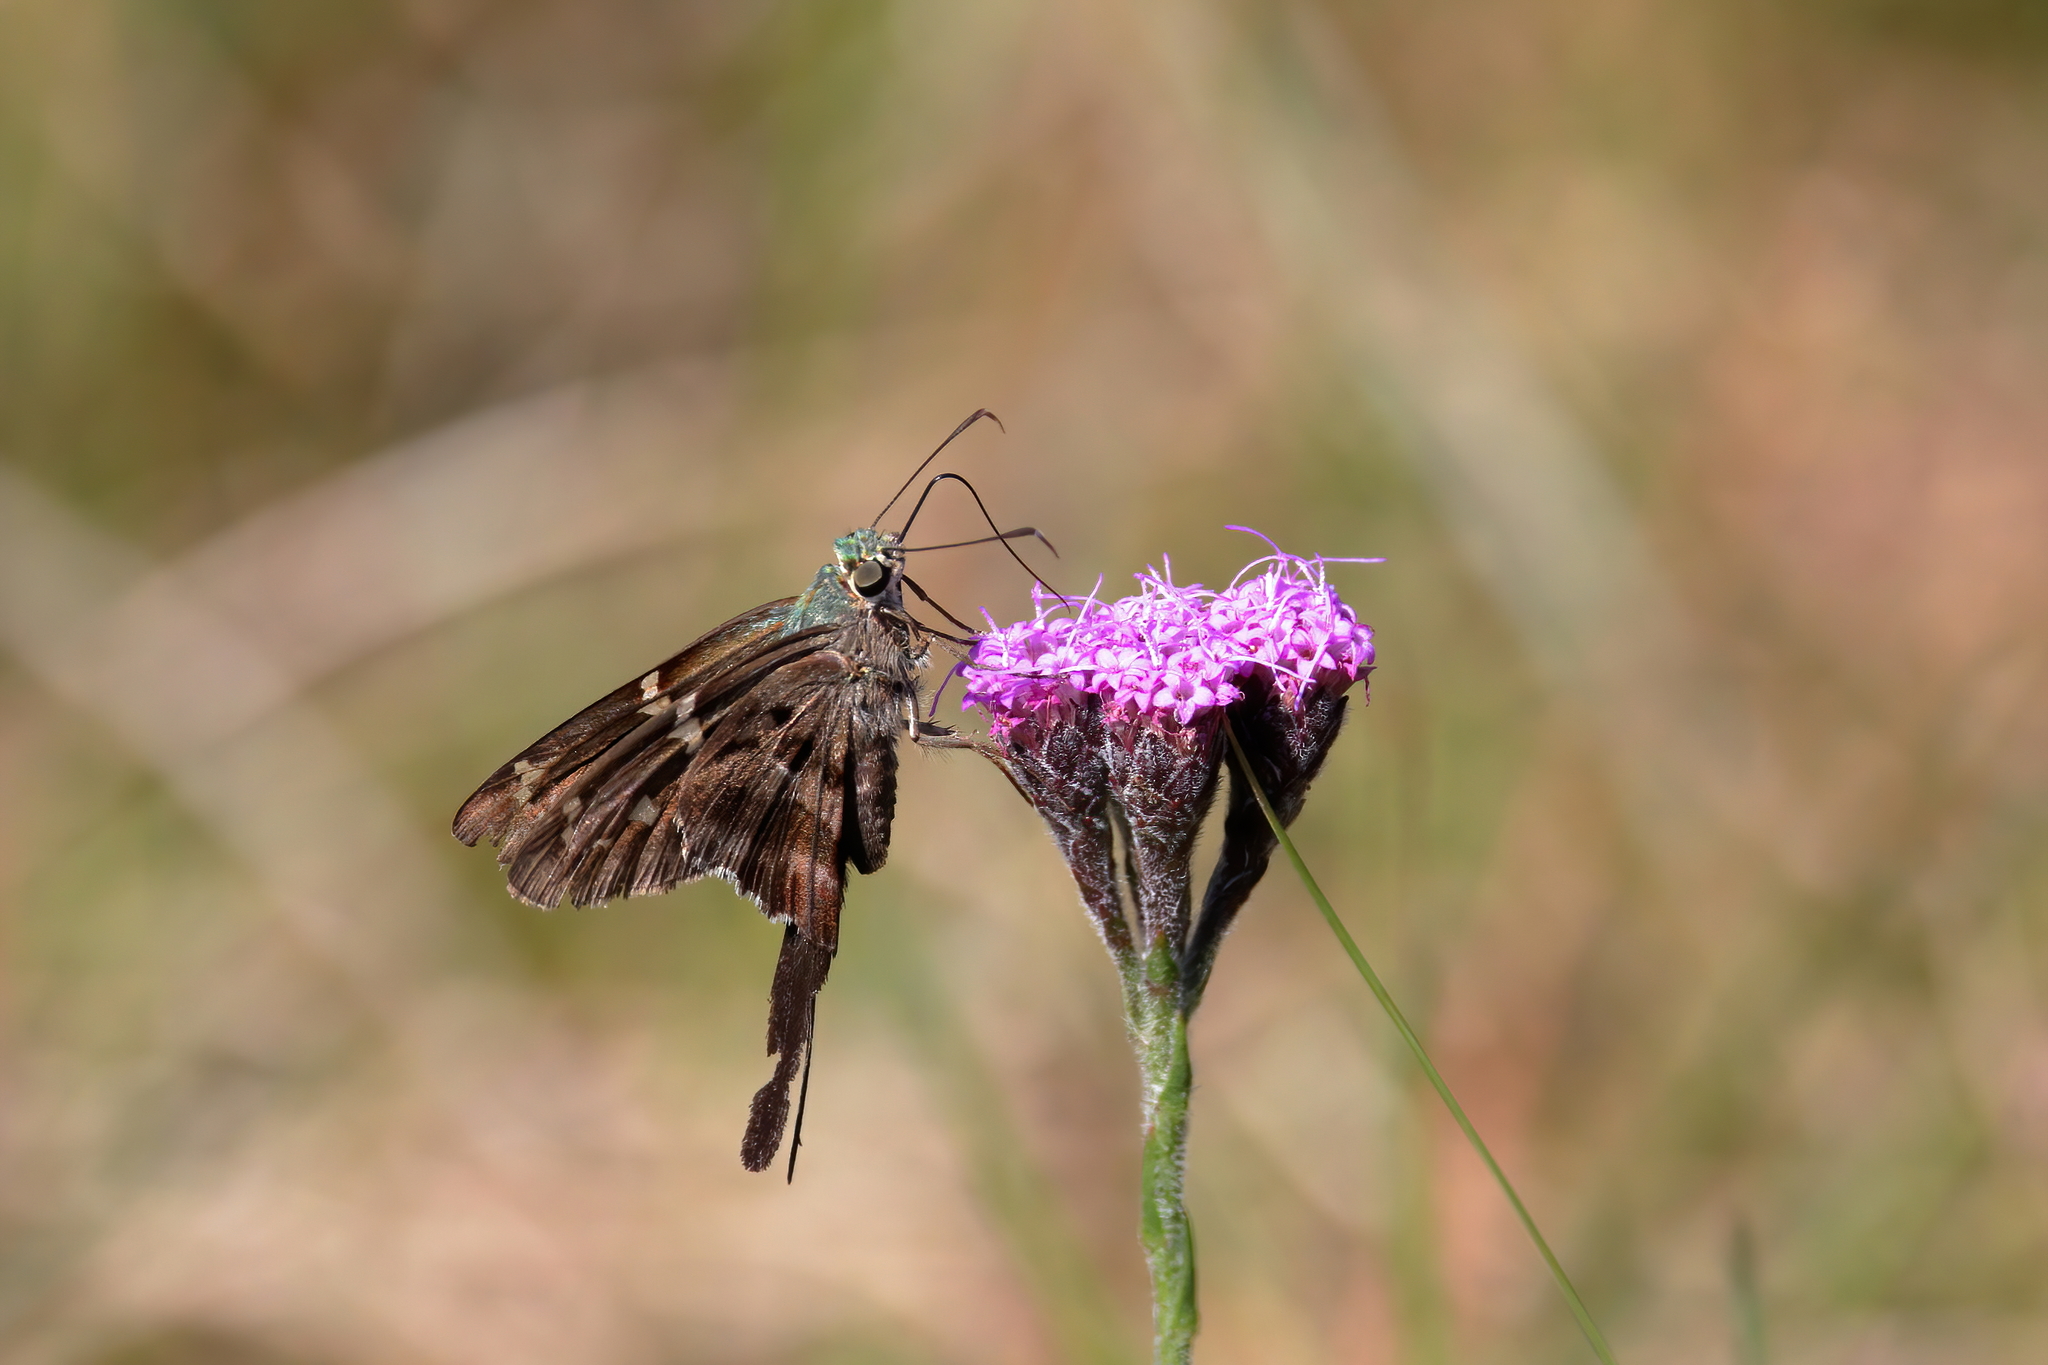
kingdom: Animalia
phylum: Arthropoda
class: Insecta
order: Lepidoptera
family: Hesperiidae
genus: Urbanus
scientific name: Urbanus proteus
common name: Long-tailed skipper
